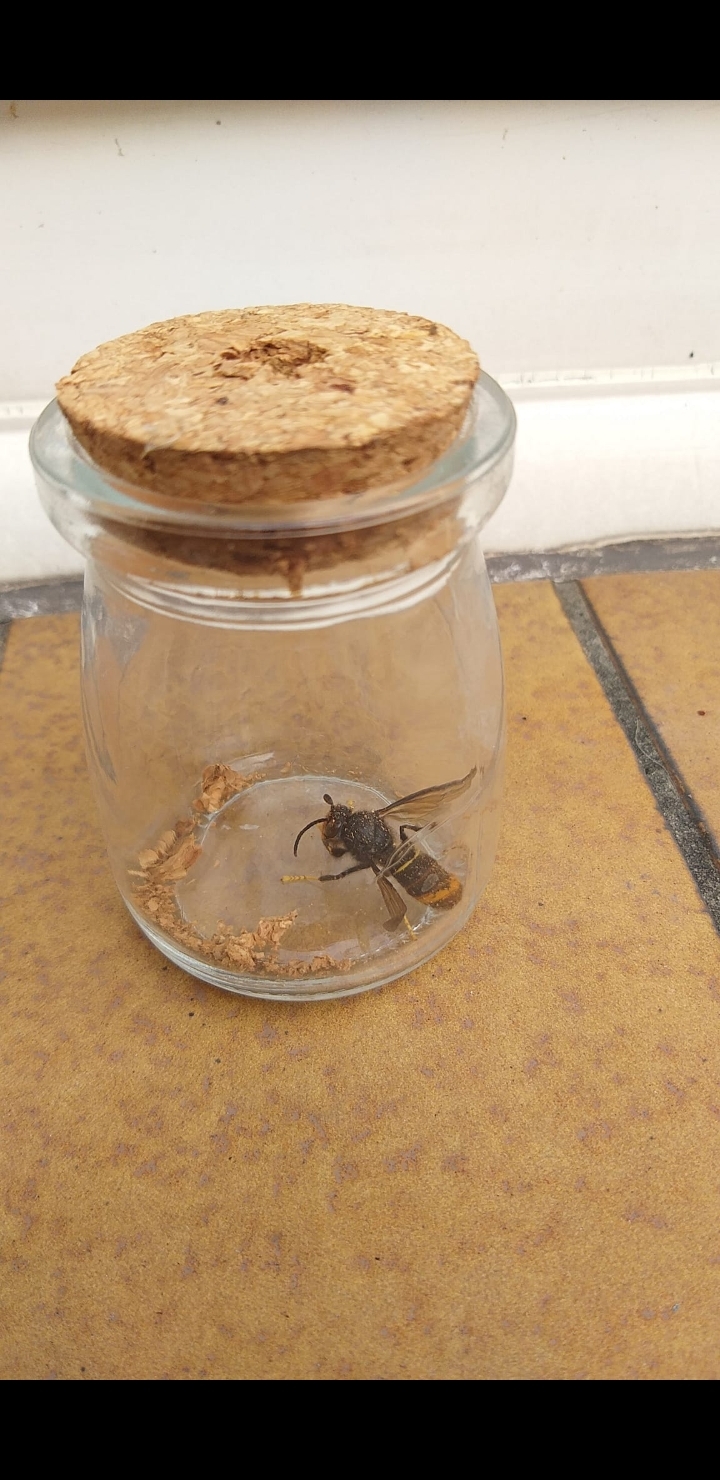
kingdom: Animalia
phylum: Arthropoda
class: Insecta
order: Hymenoptera
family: Vespidae
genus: Vespa
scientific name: Vespa velutina
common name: Asian hornet
